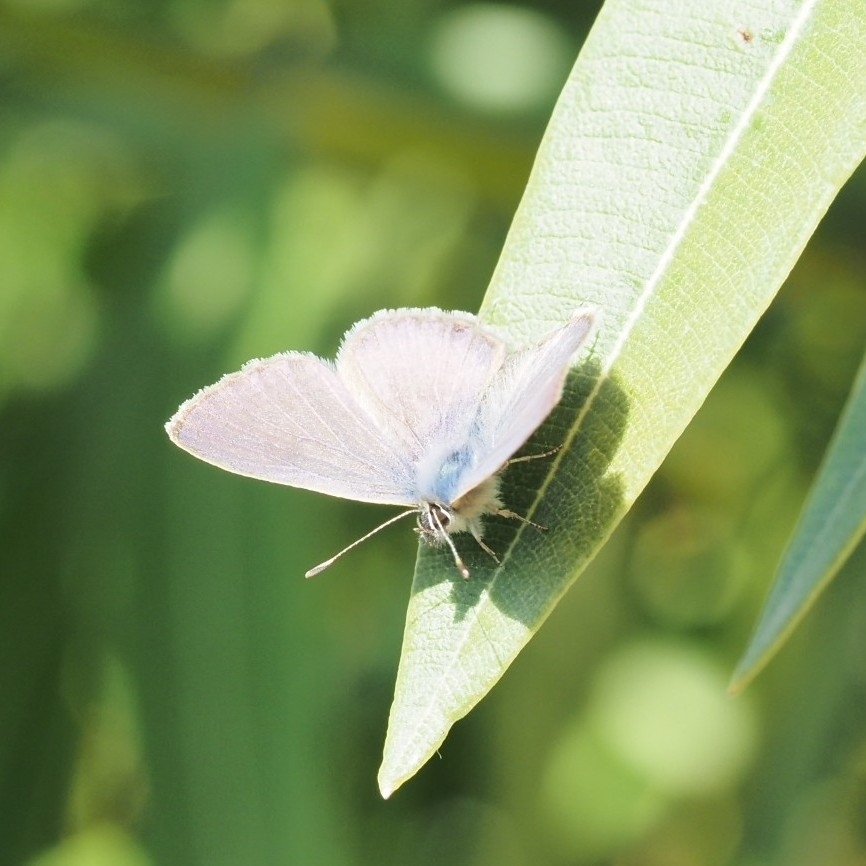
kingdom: Animalia
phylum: Arthropoda
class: Insecta
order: Lepidoptera
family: Lycaenidae
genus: Leptotes
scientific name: Leptotes pirithous
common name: Lang's short-tailed blue
